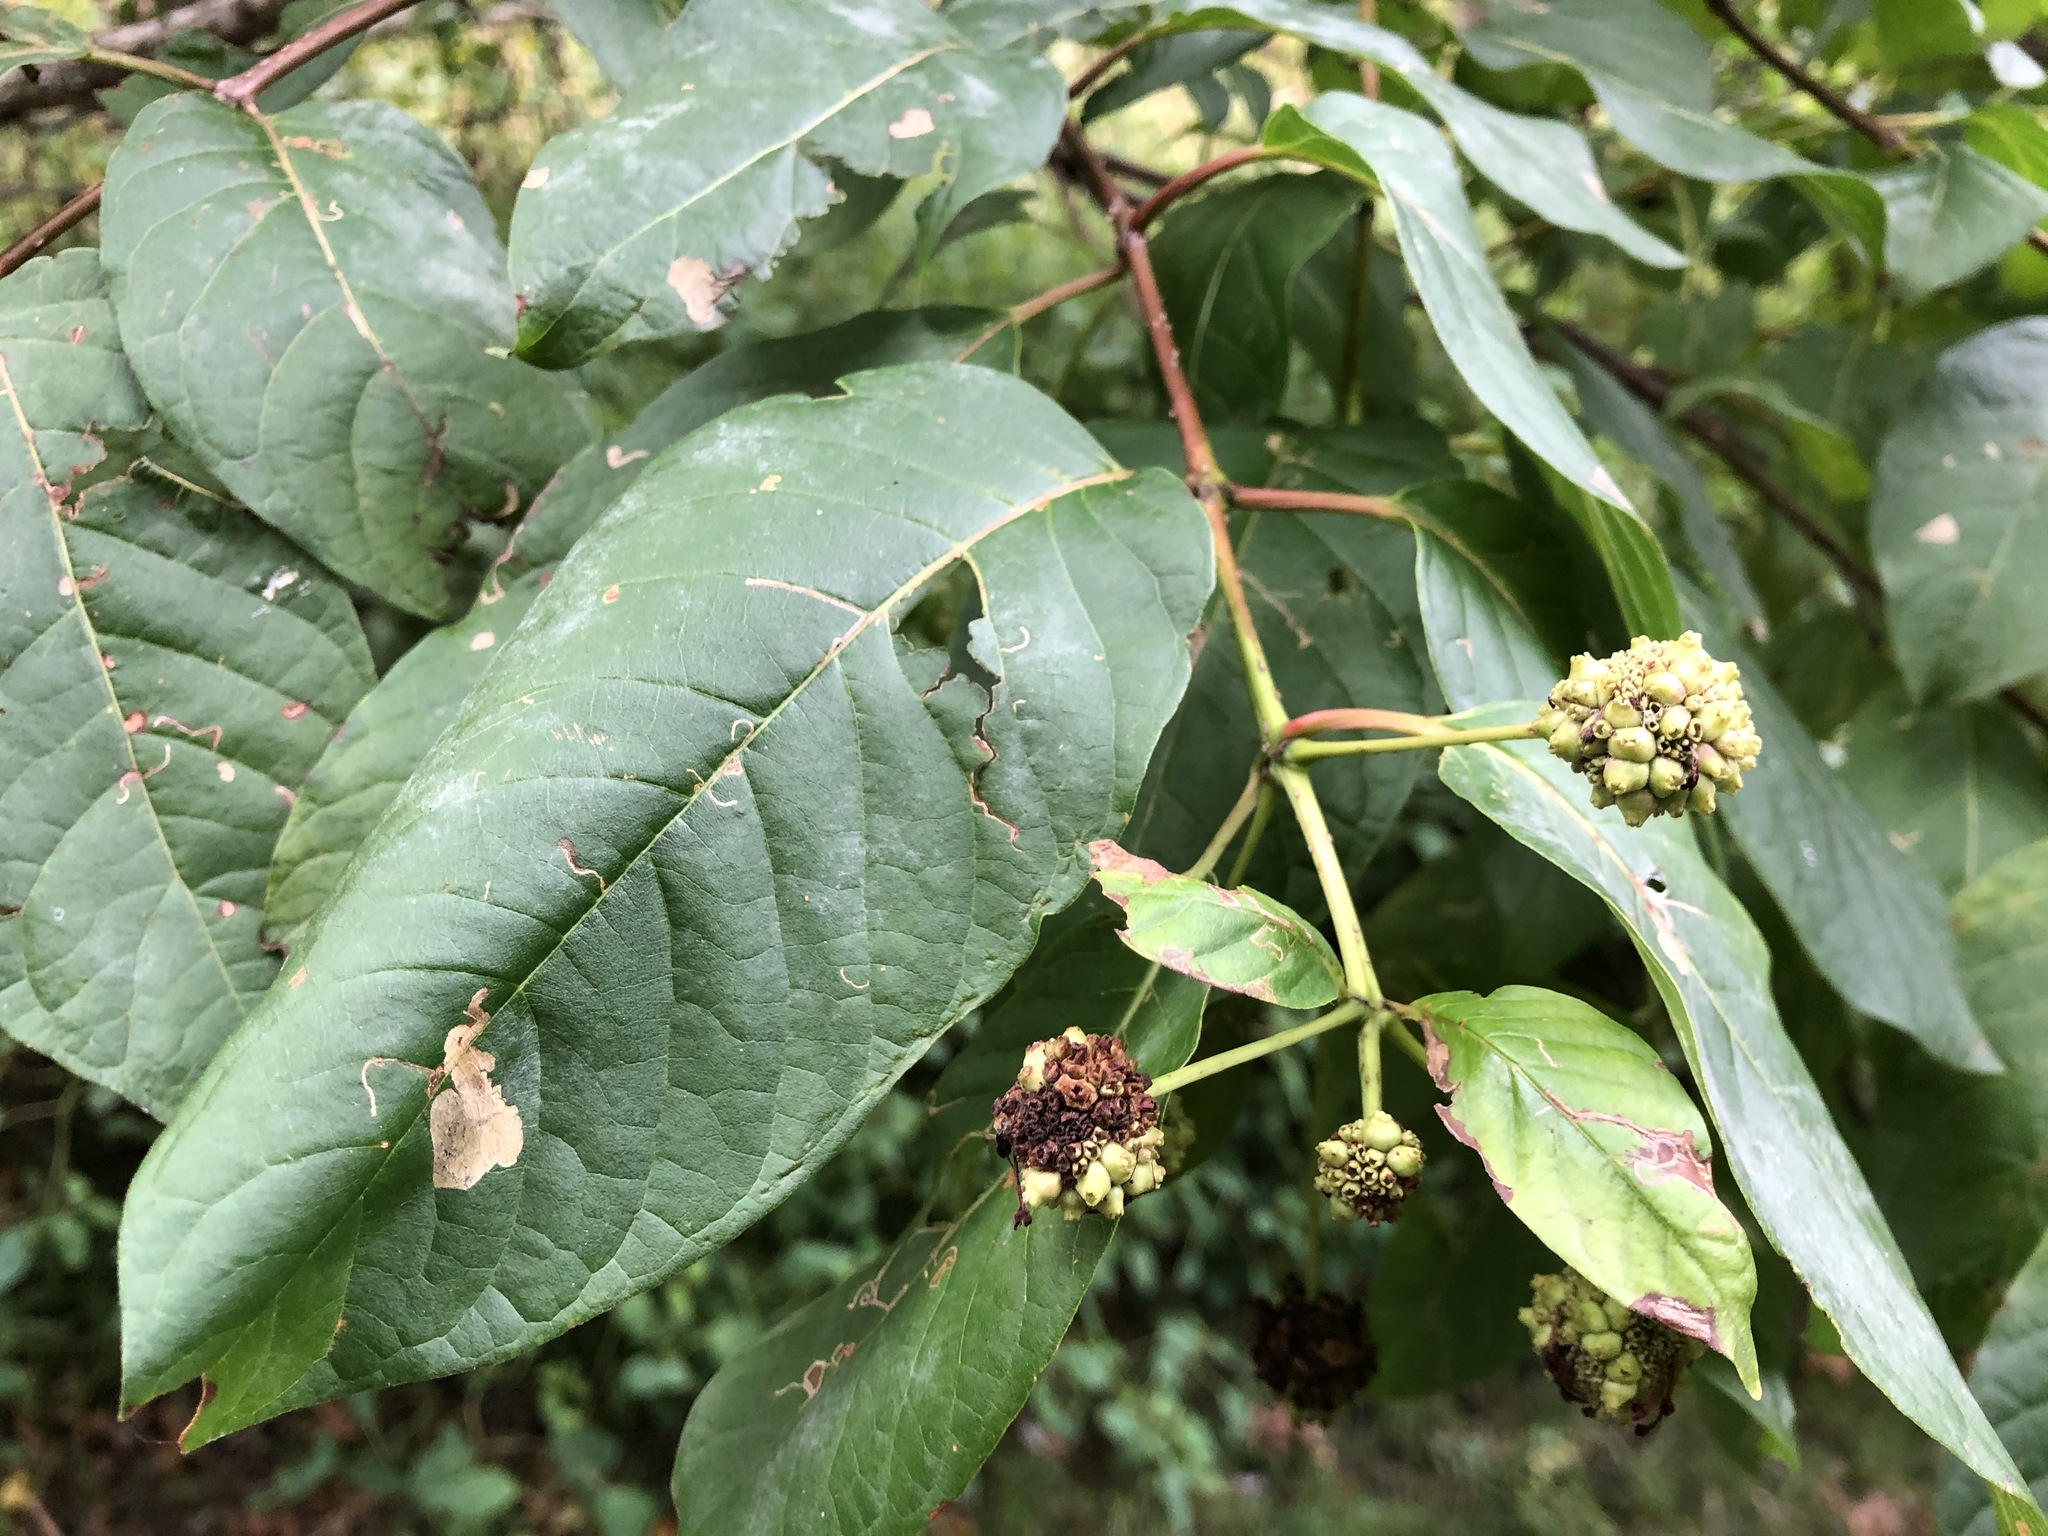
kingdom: Plantae
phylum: Tracheophyta
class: Magnoliopsida
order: Gentianales
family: Rubiaceae
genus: Cephalanthus
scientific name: Cephalanthus occidentalis
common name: Button-willow
